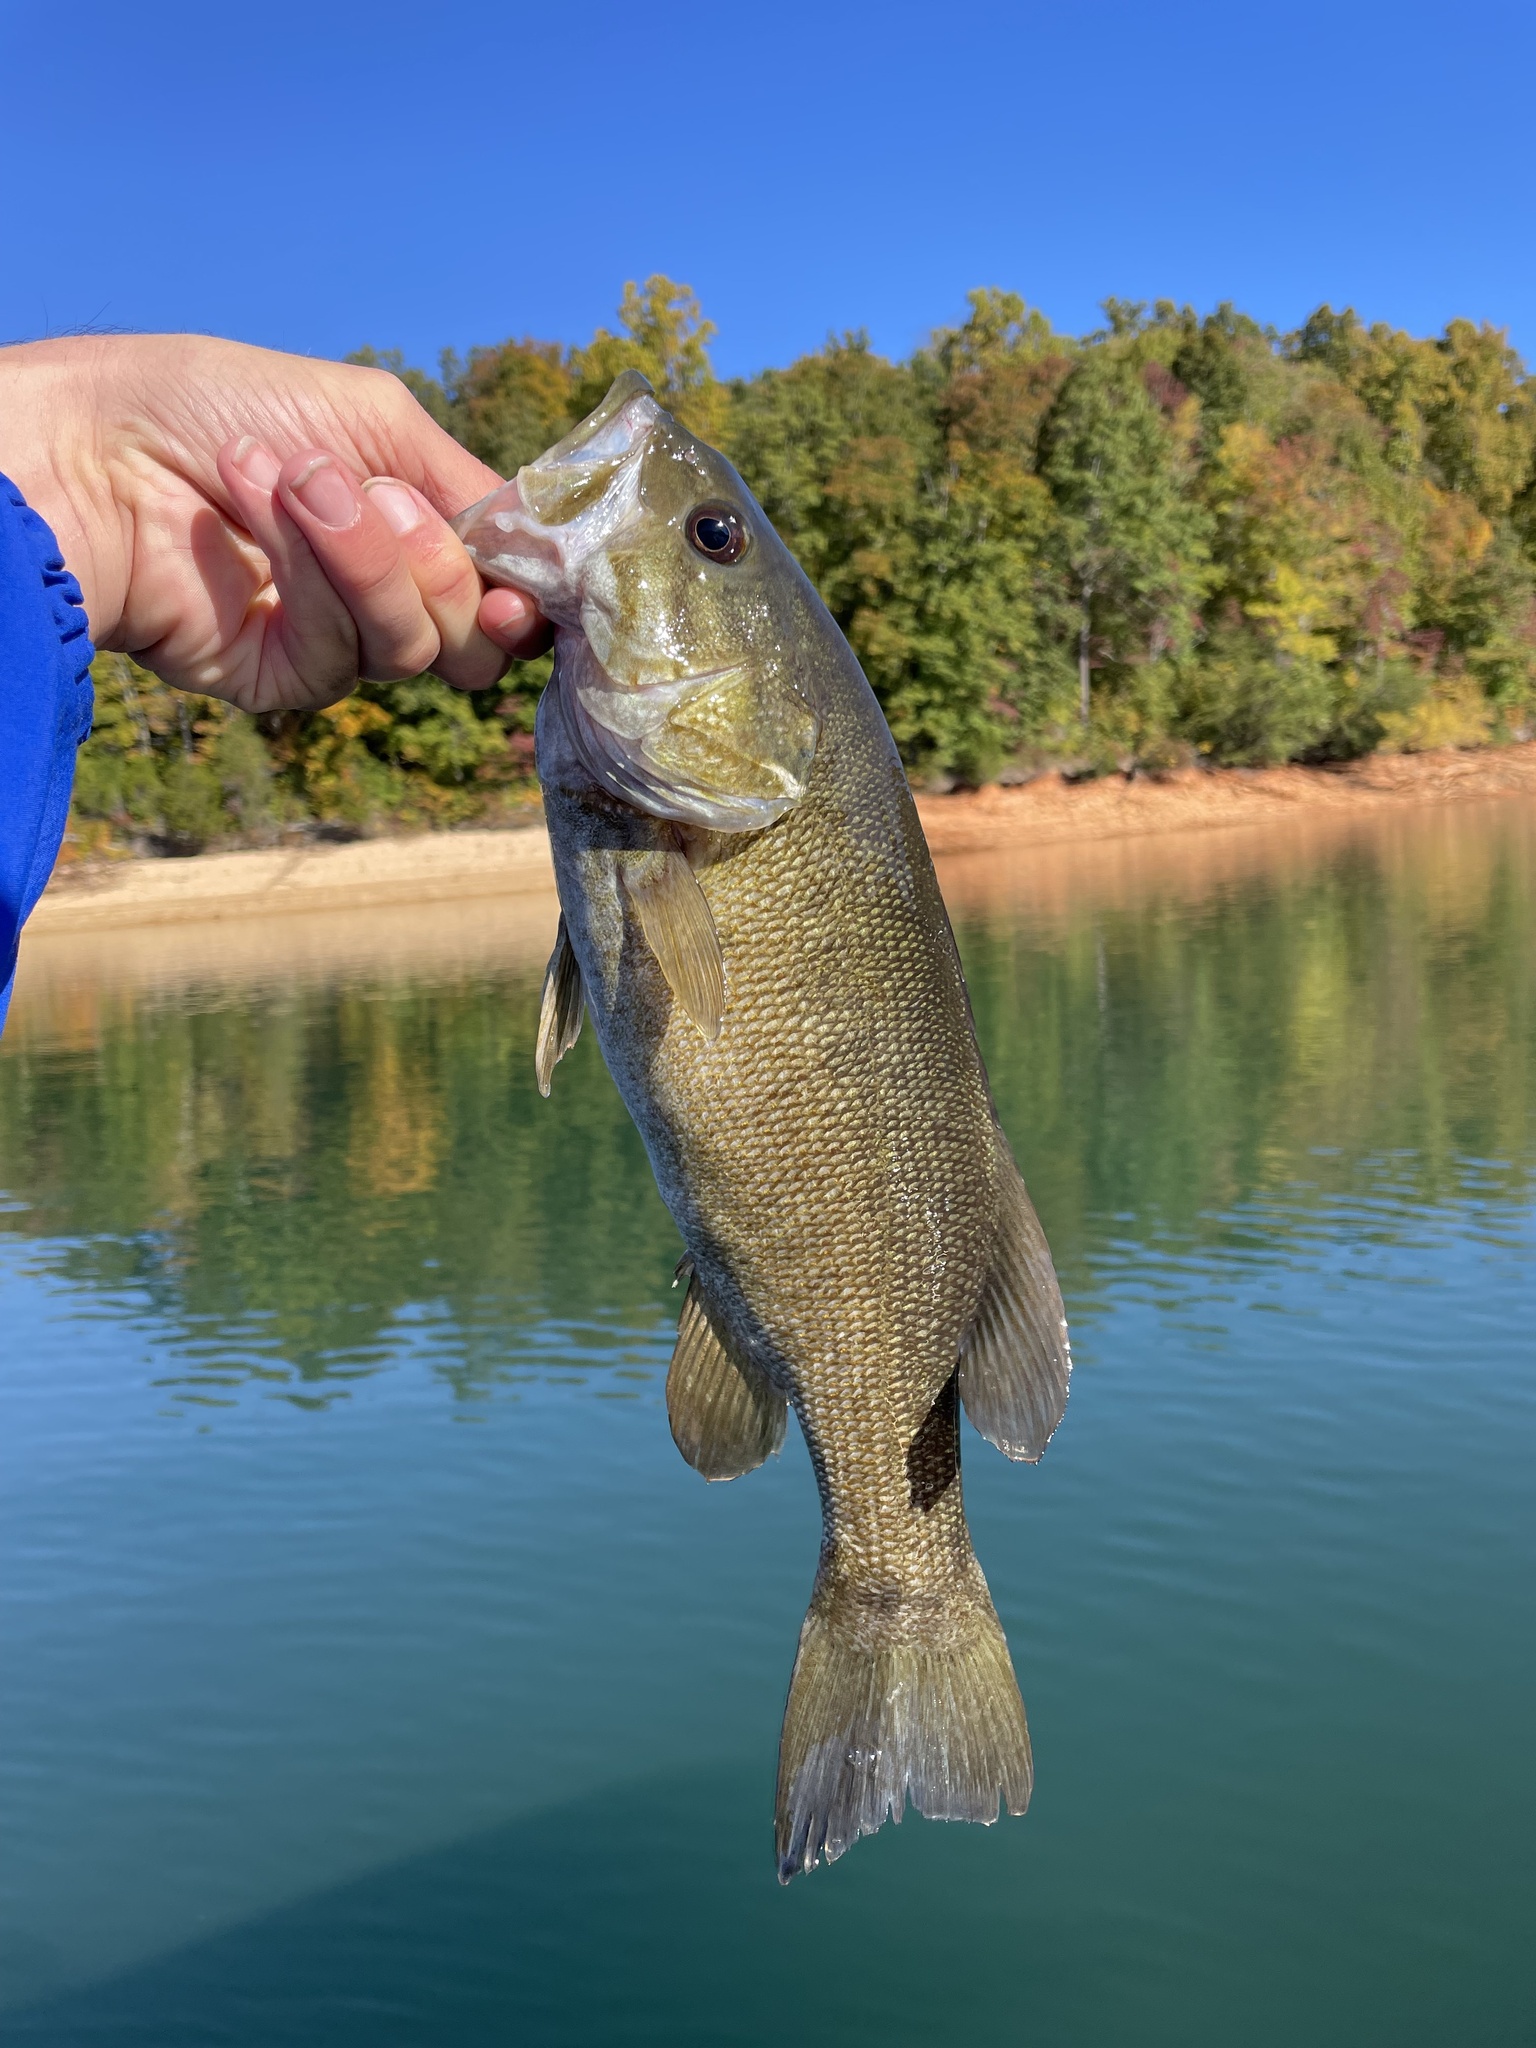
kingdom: Animalia
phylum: Chordata
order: Perciformes
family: Centrarchidae
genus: Micropterus
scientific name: Micropterus dolomieu
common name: Smallmouth bass
